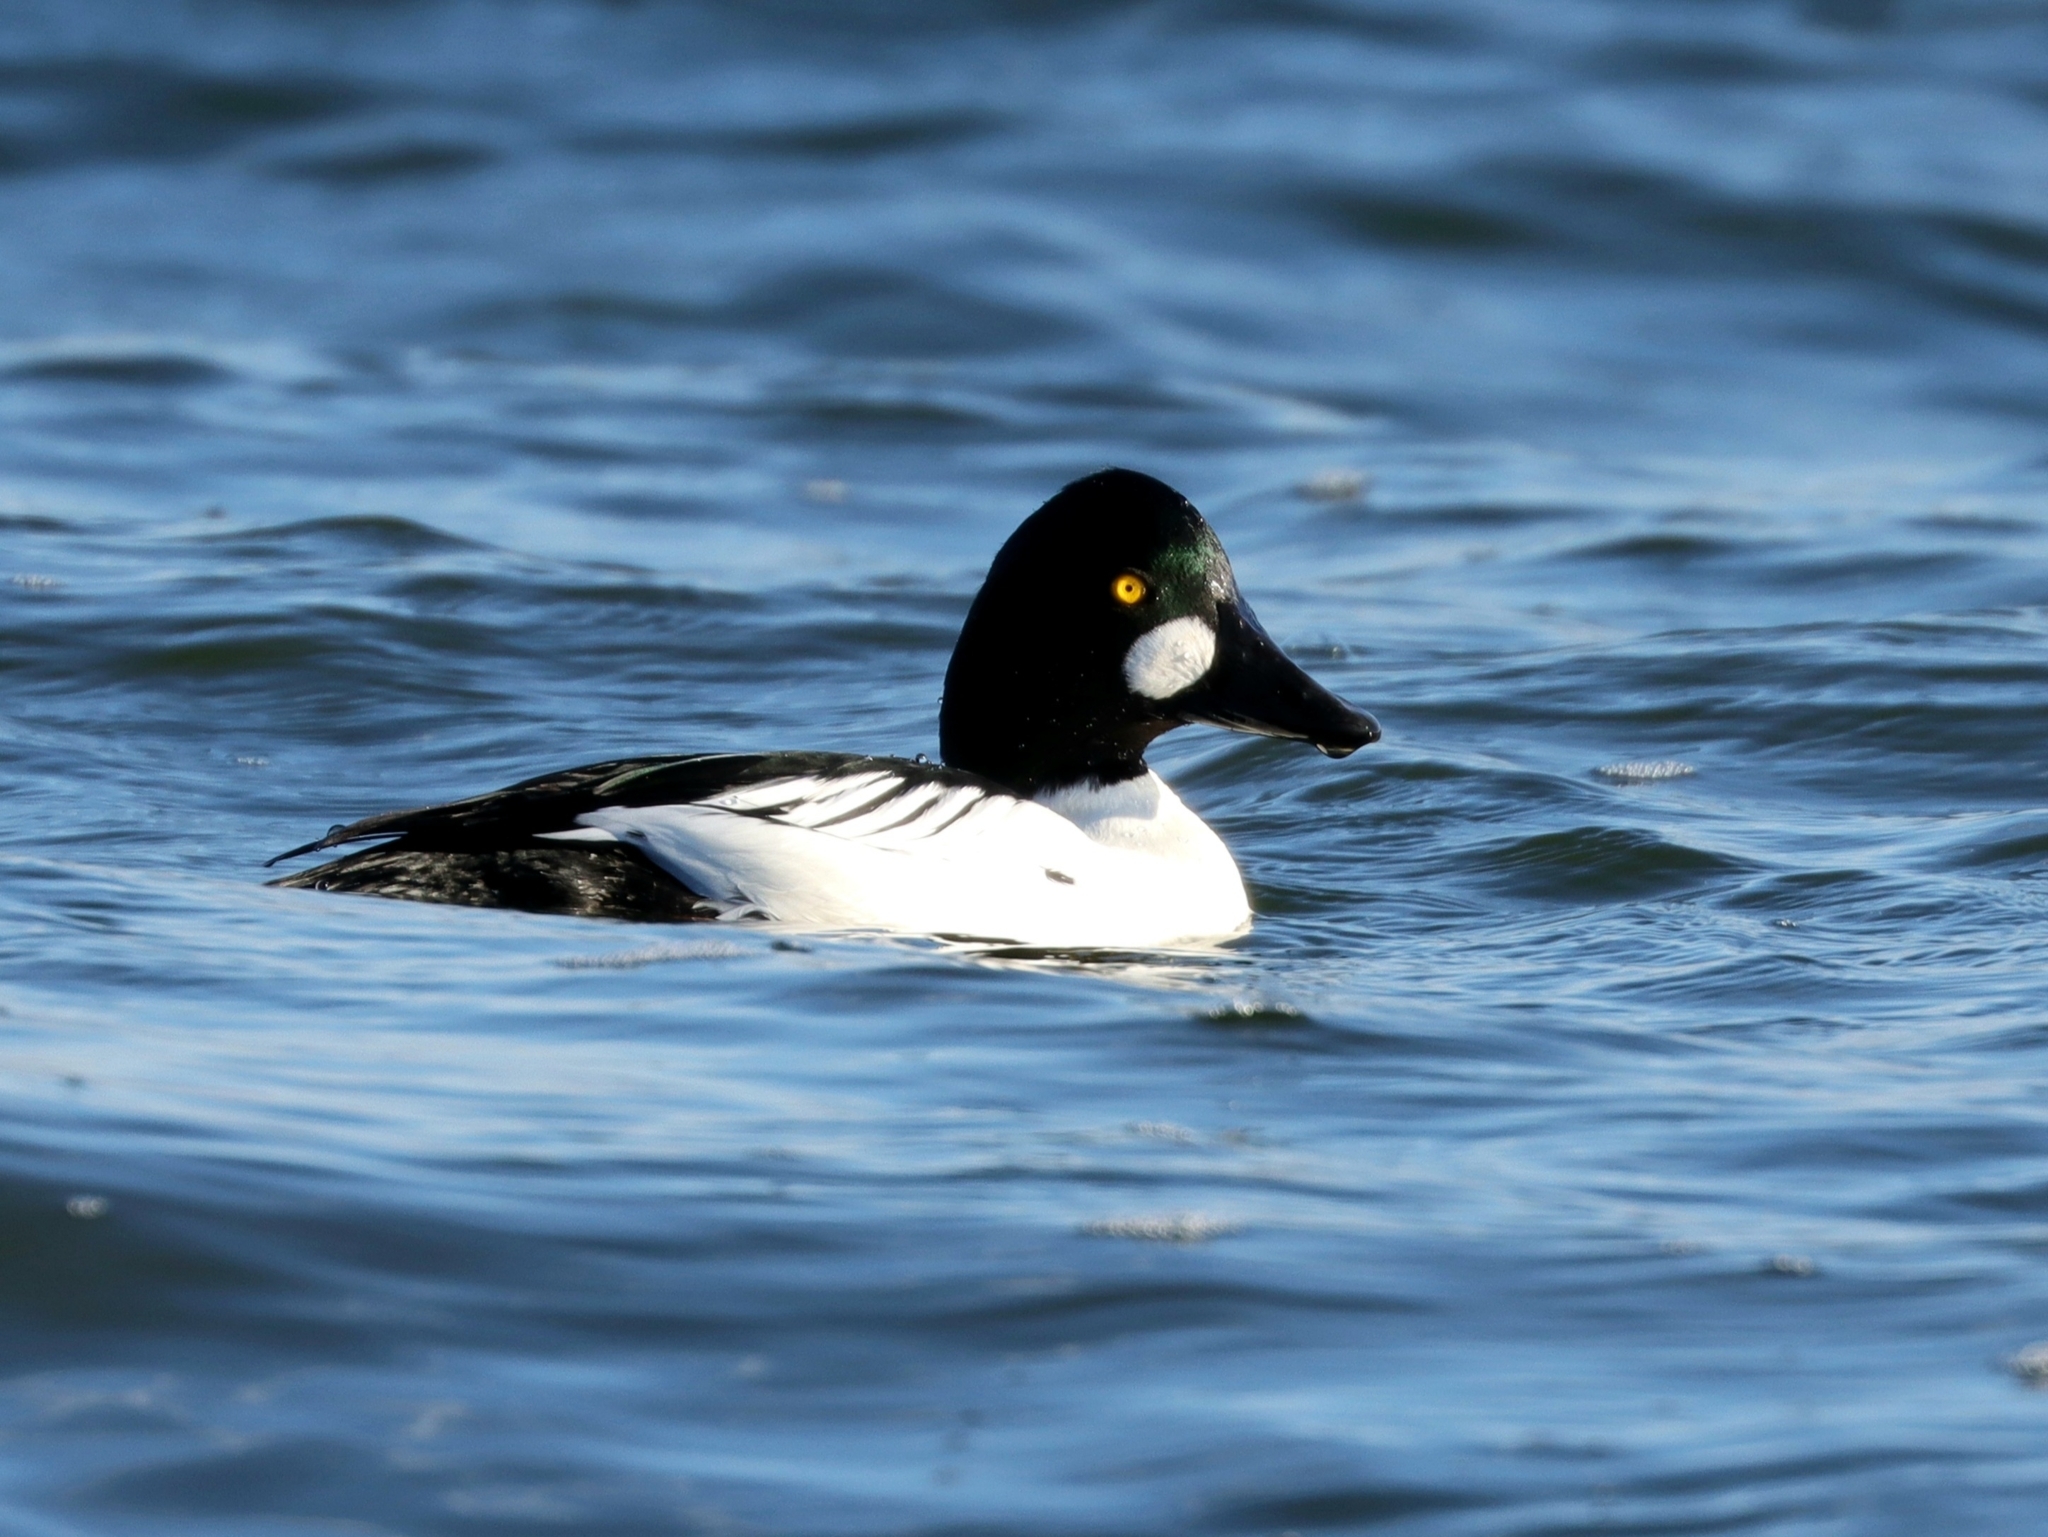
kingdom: Animalia
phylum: Chordata
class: Aves
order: Anseriformes
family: Anatidae
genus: Bucephala
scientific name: Bucephala clangula
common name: Common goldeneye
